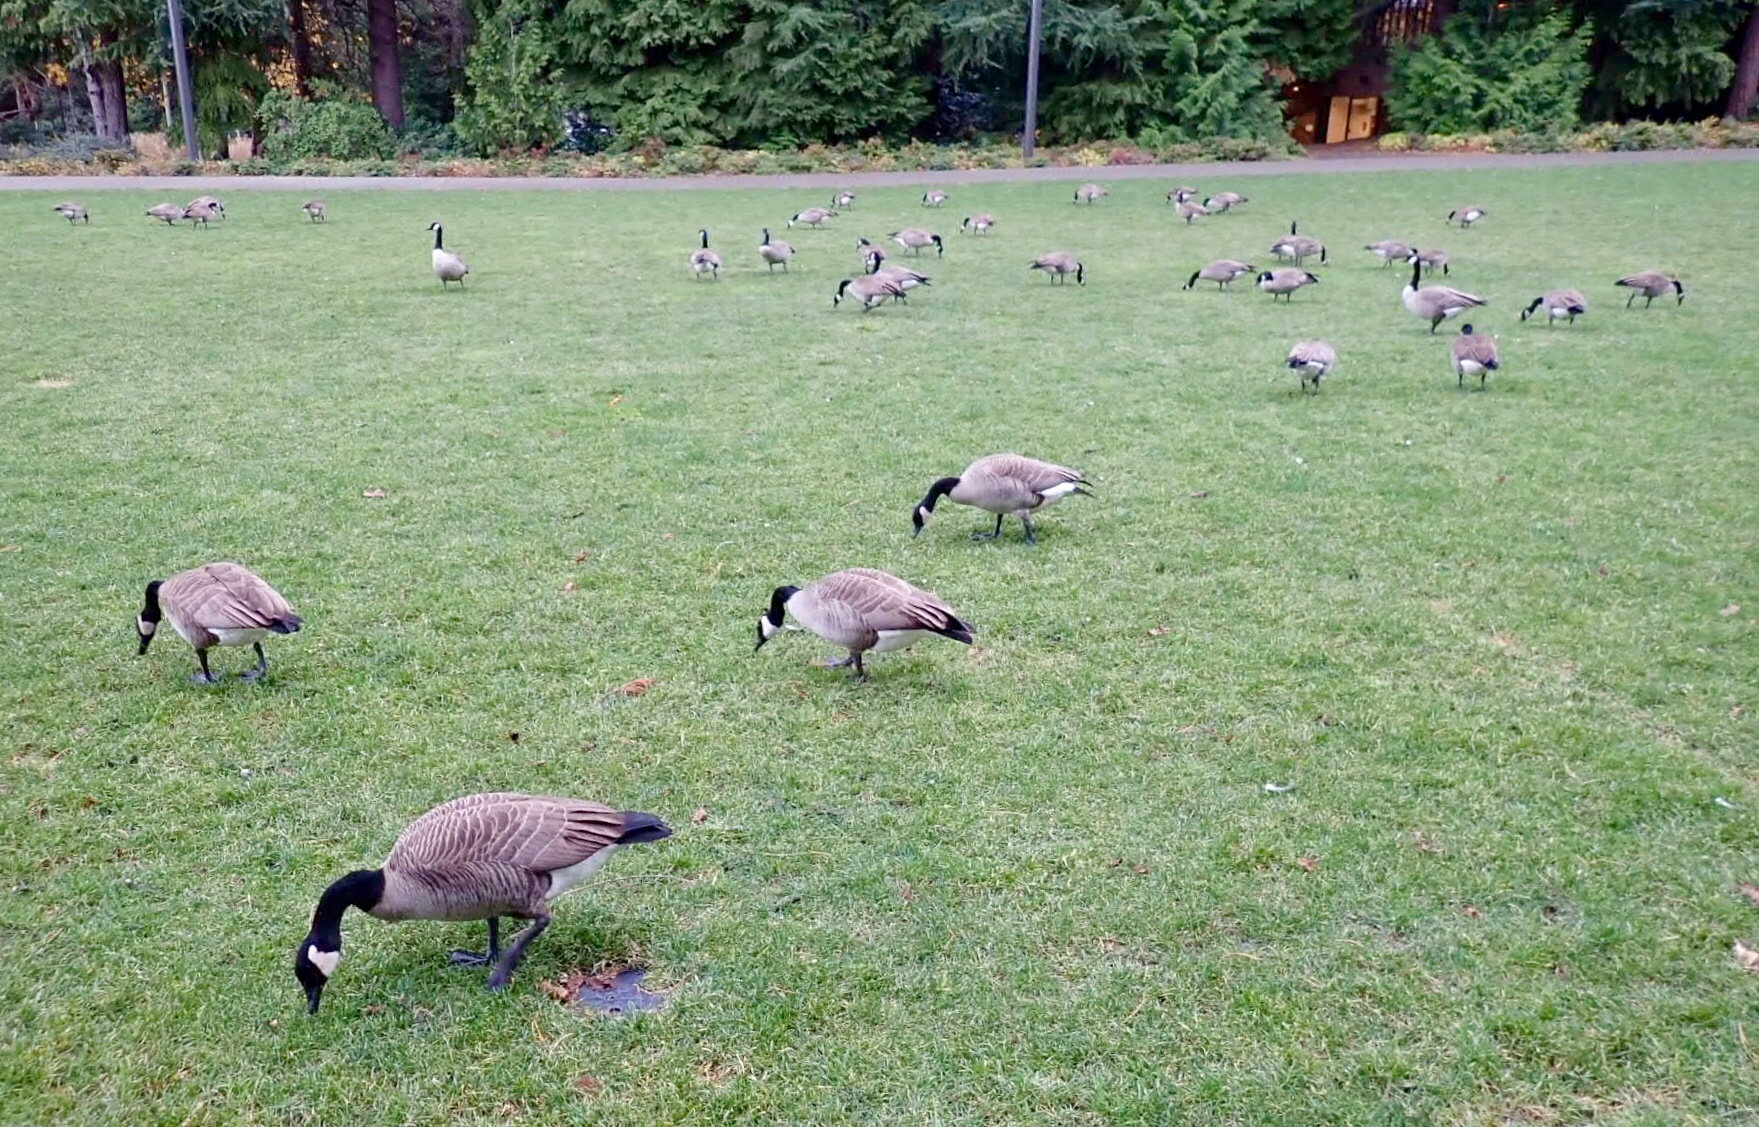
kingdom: Animalia
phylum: Chordata
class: Aves
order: Anseriformes
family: Anatidae
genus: Branta
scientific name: Branta canadensis
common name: Canada goose
